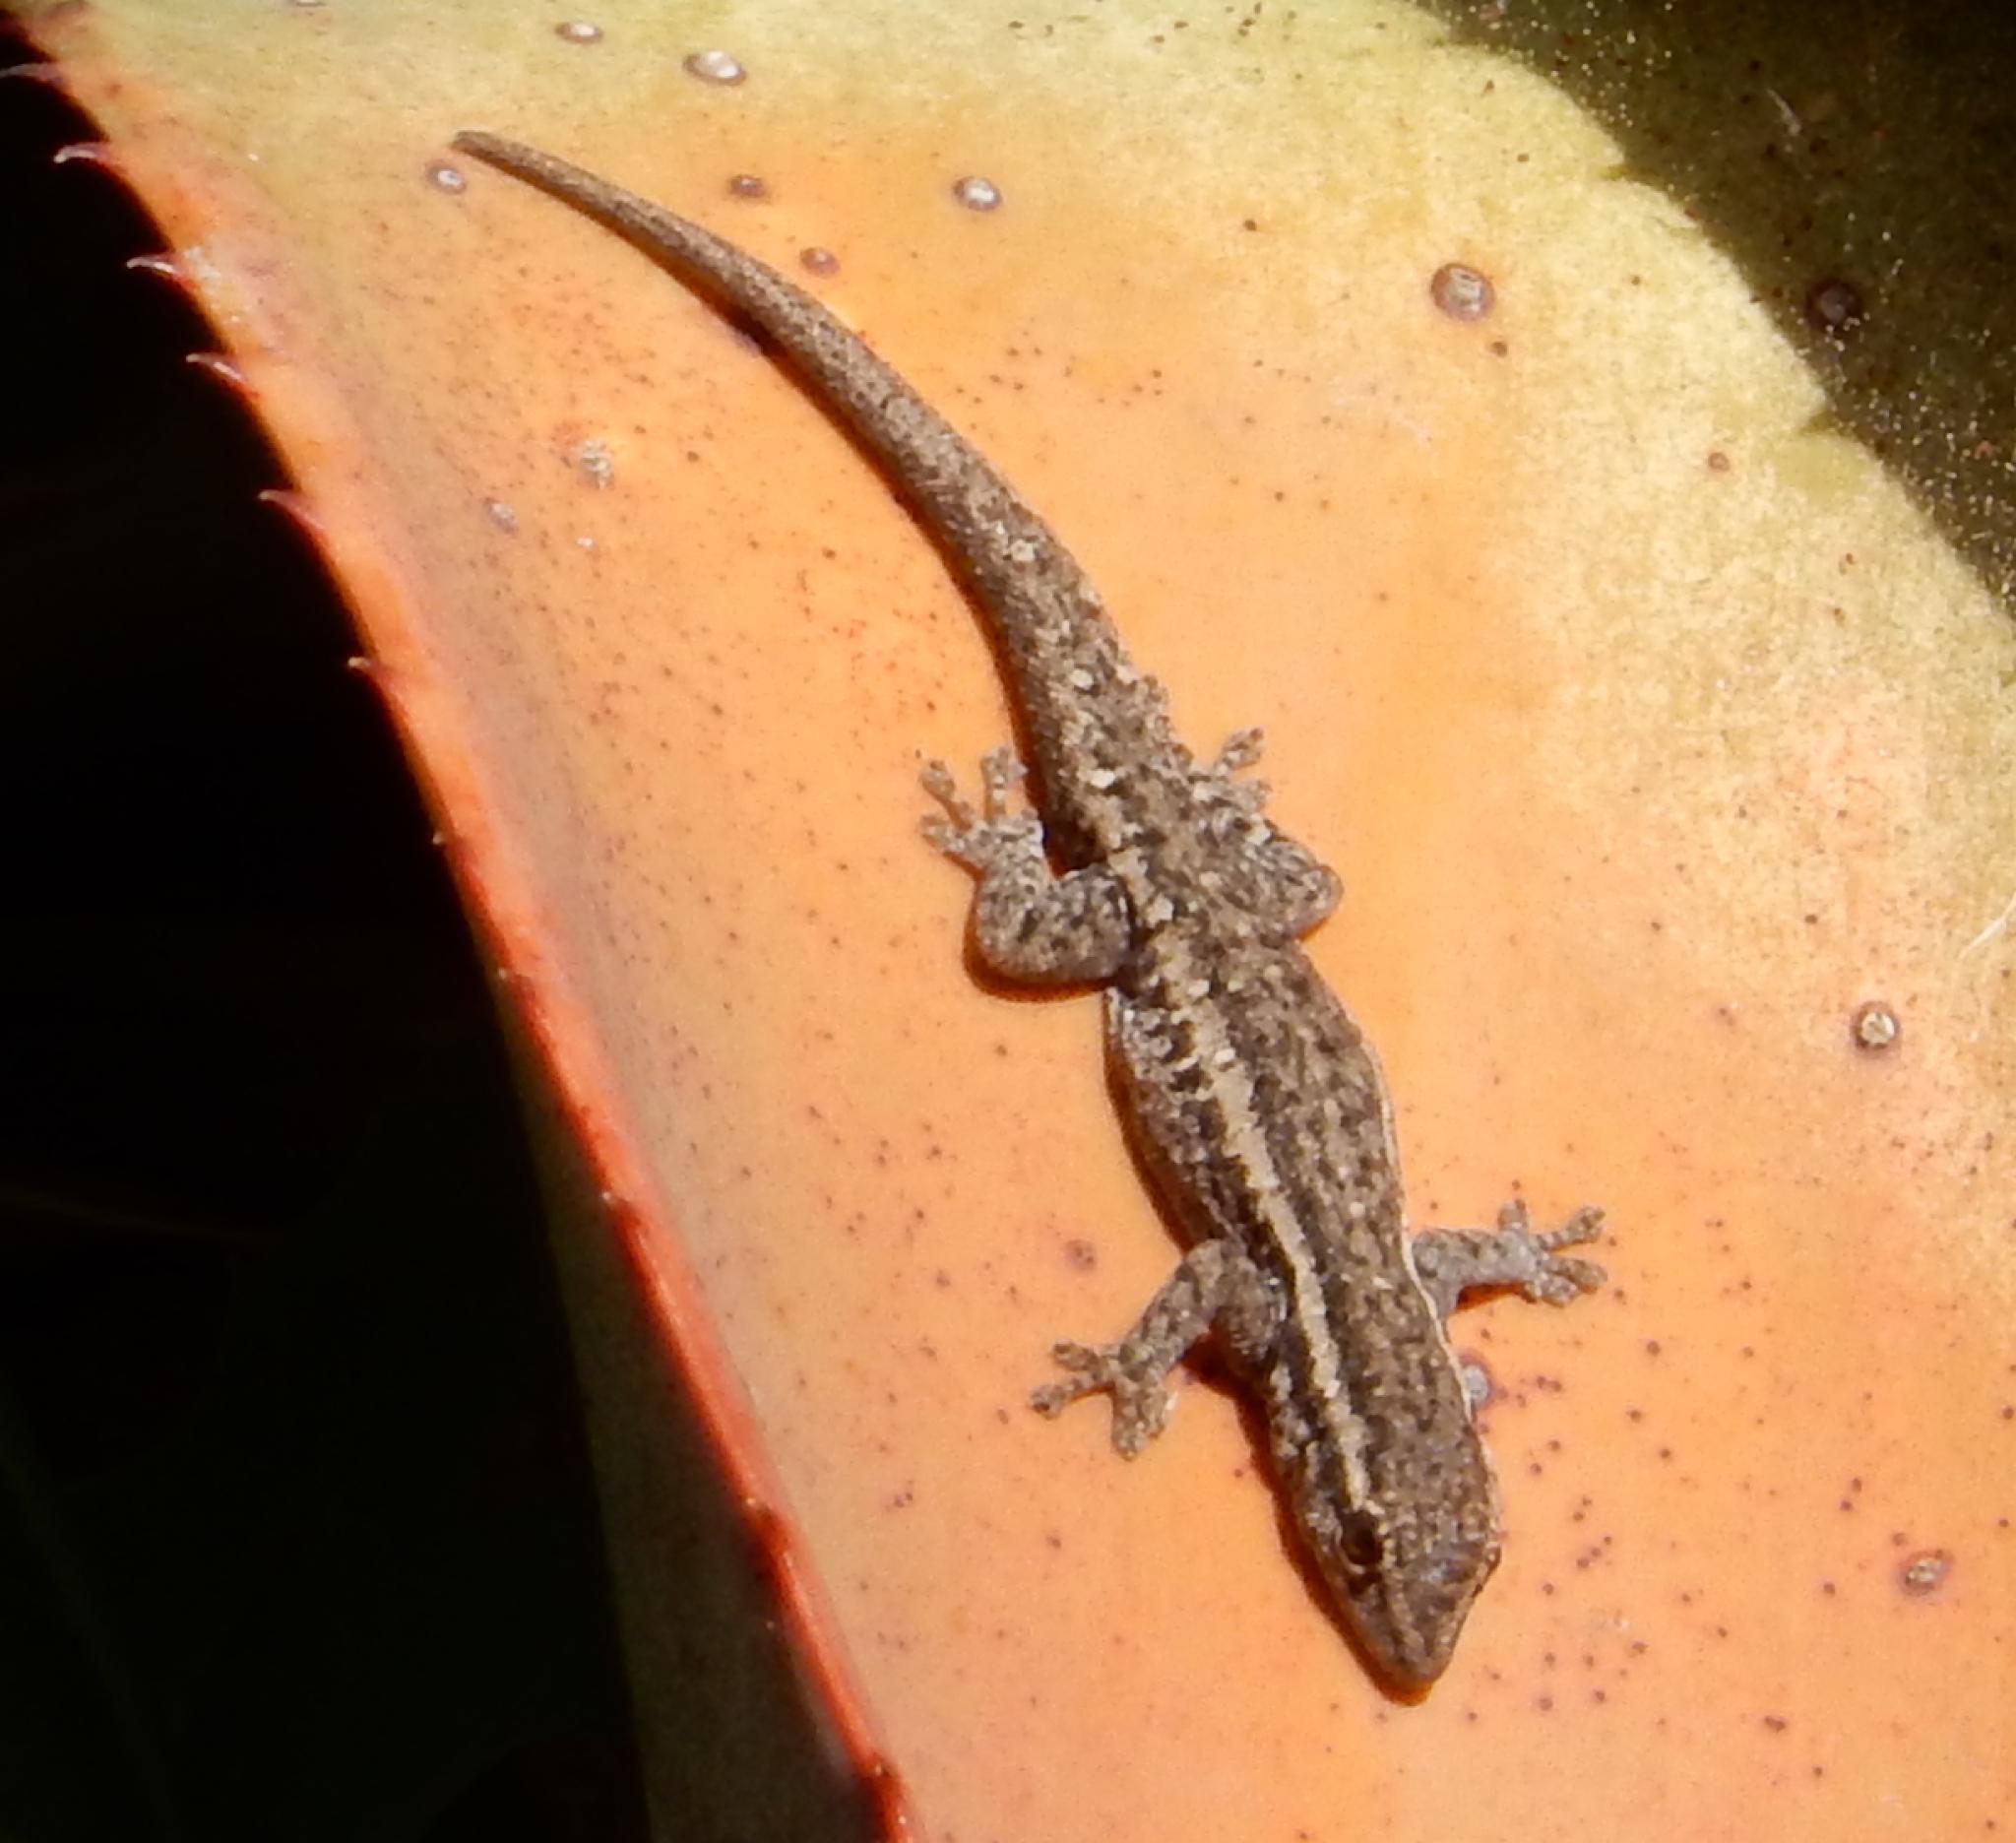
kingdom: Animalia
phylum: Chordata
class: Squamata
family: Gekkonidae
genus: Lygodactylus
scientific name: Lygodactylus capensis
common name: Cape dwarf gecko
